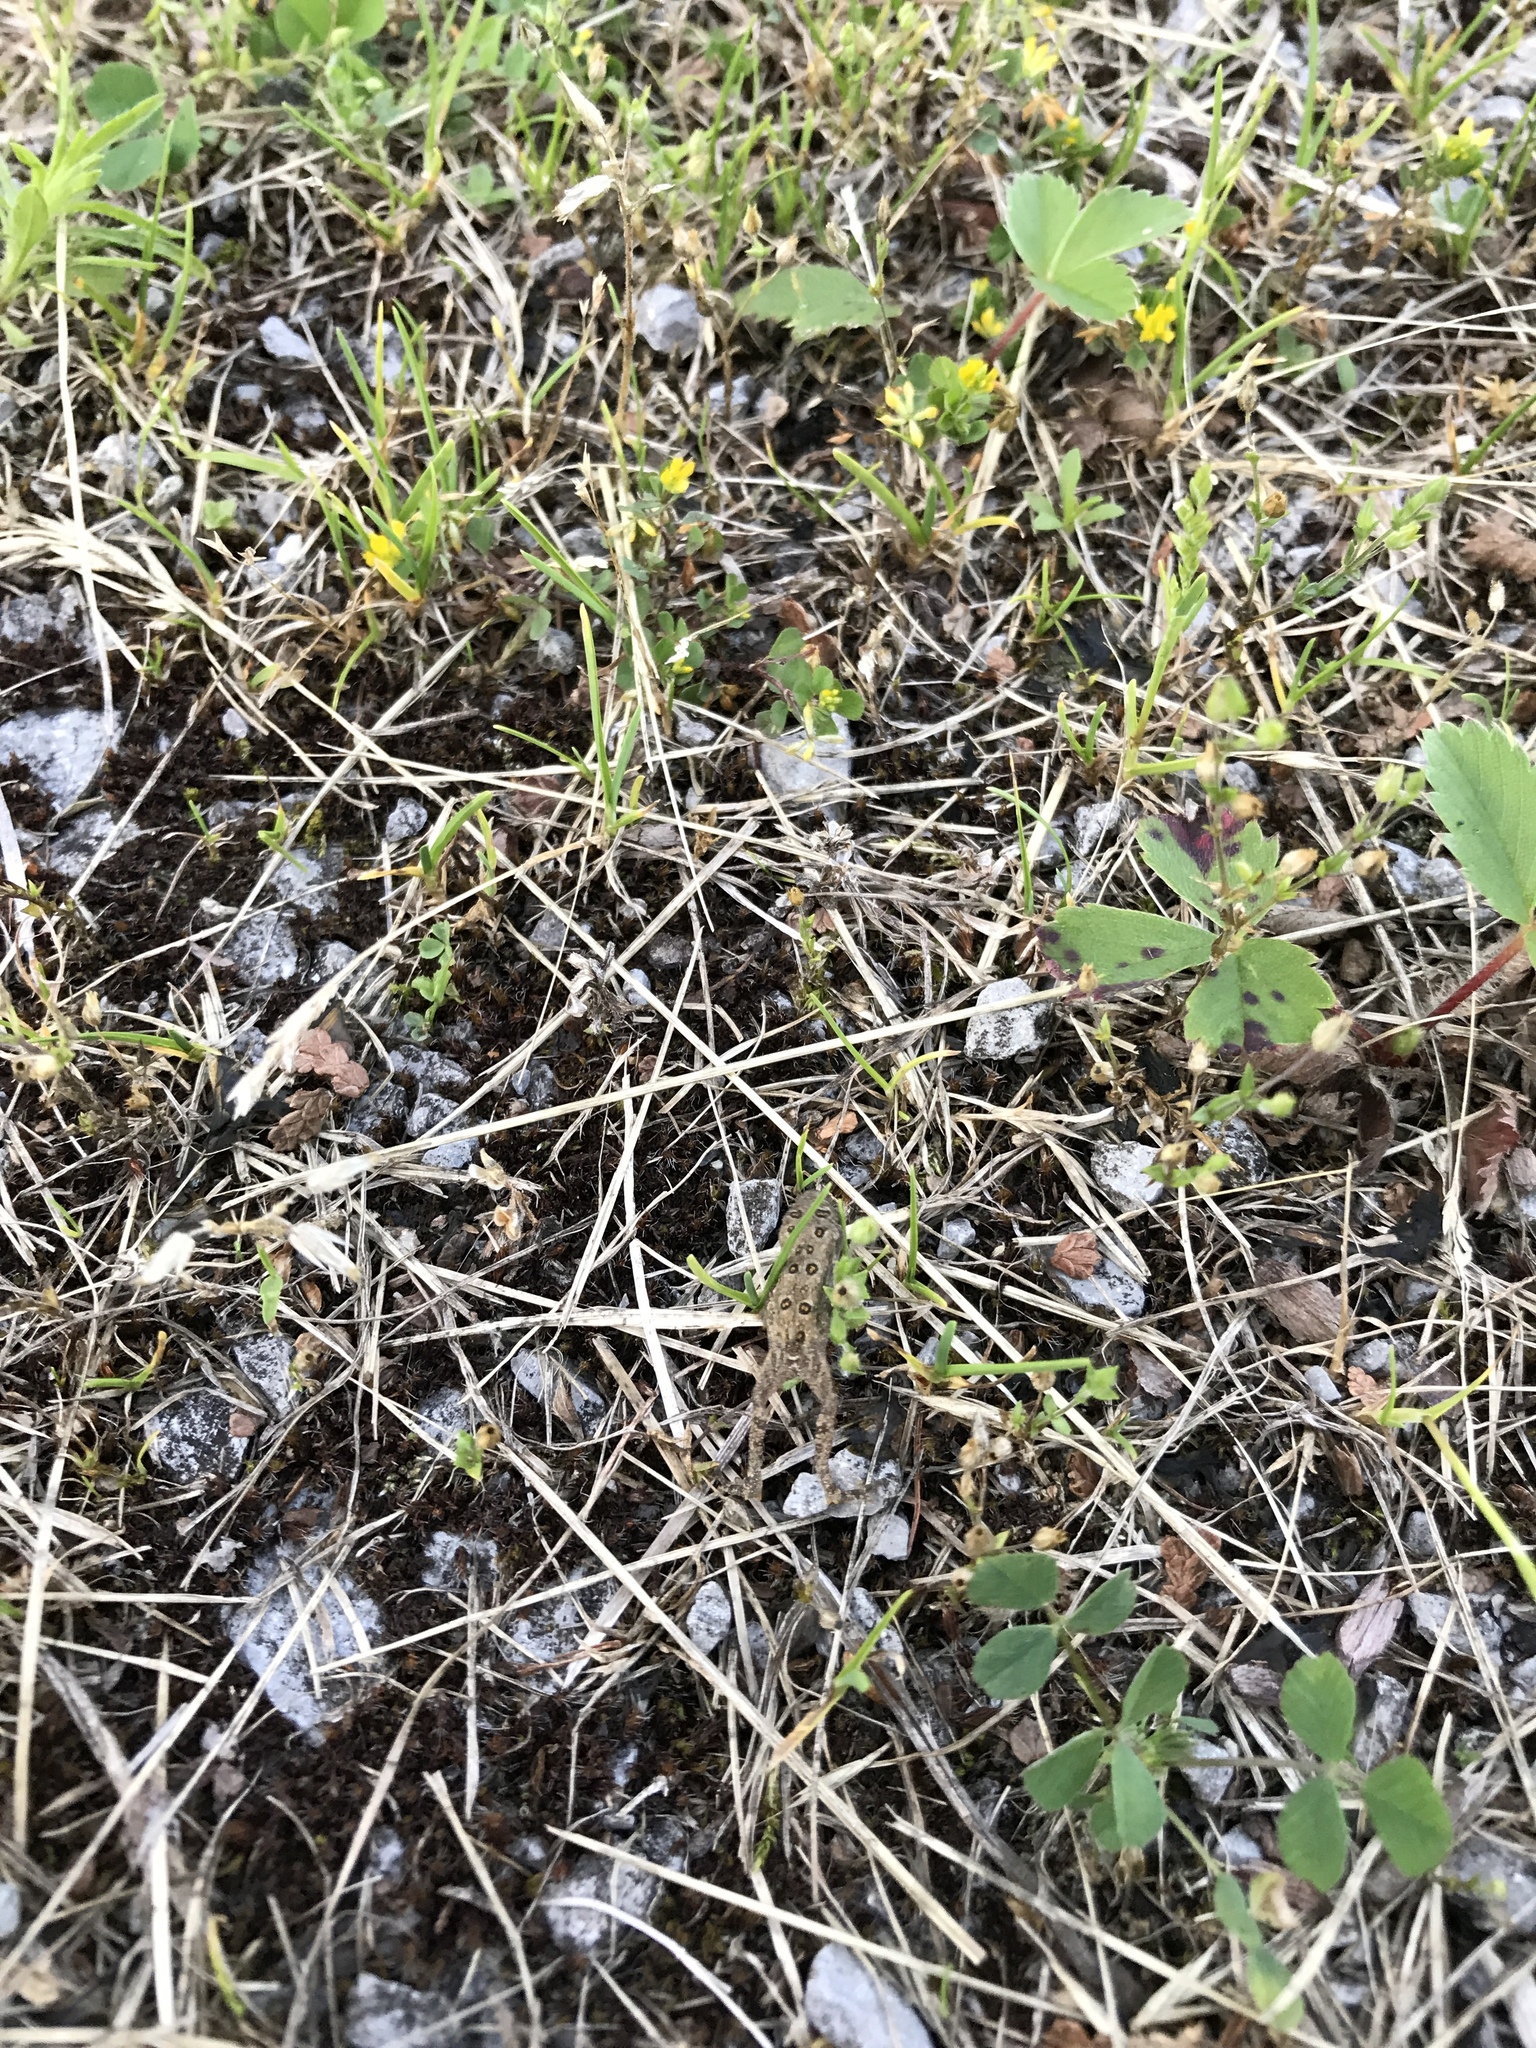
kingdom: Animalia
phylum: Chordata
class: Amphibia
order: Anura
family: Bufonidae
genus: Anaxyrus
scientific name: Anaxyrus americanus
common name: American toad
